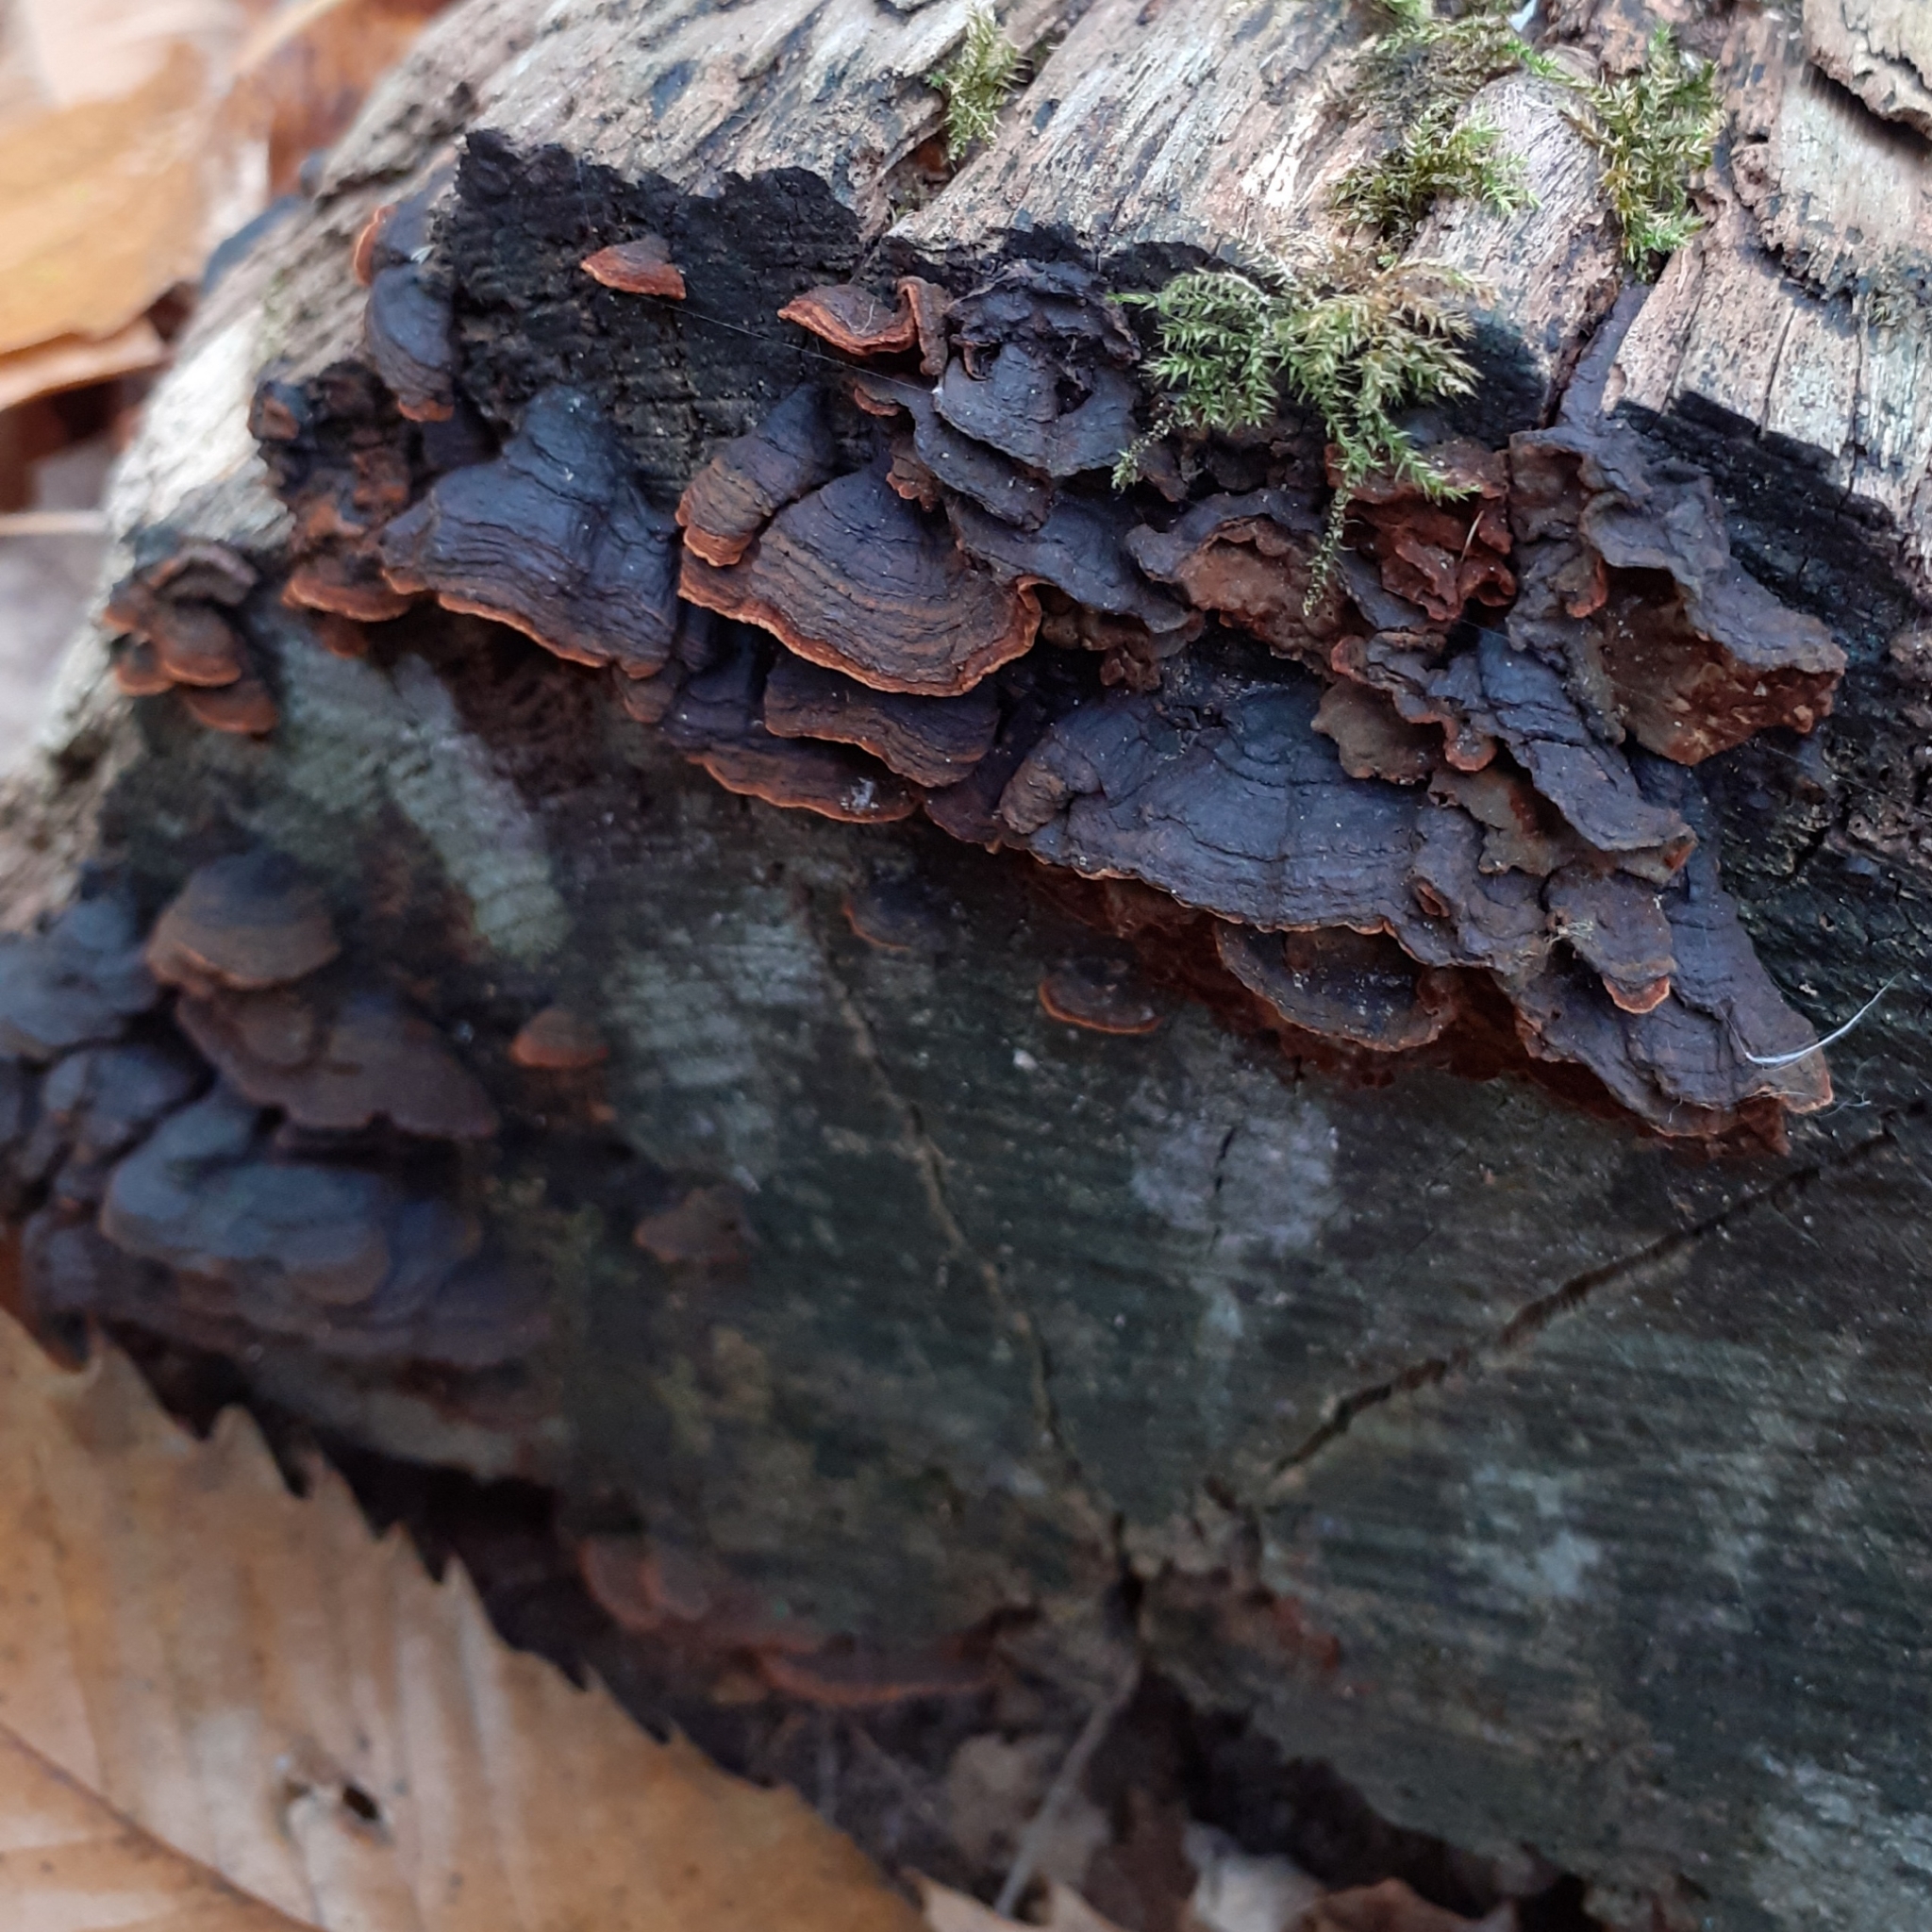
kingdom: Fungi
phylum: Basidiomycota
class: Agaricomycetes
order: Hymenochaetales
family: Hymenochaetaceae
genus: Hymenochaete
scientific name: Hymenochaete rubiginosa
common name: Oak curtain crust
